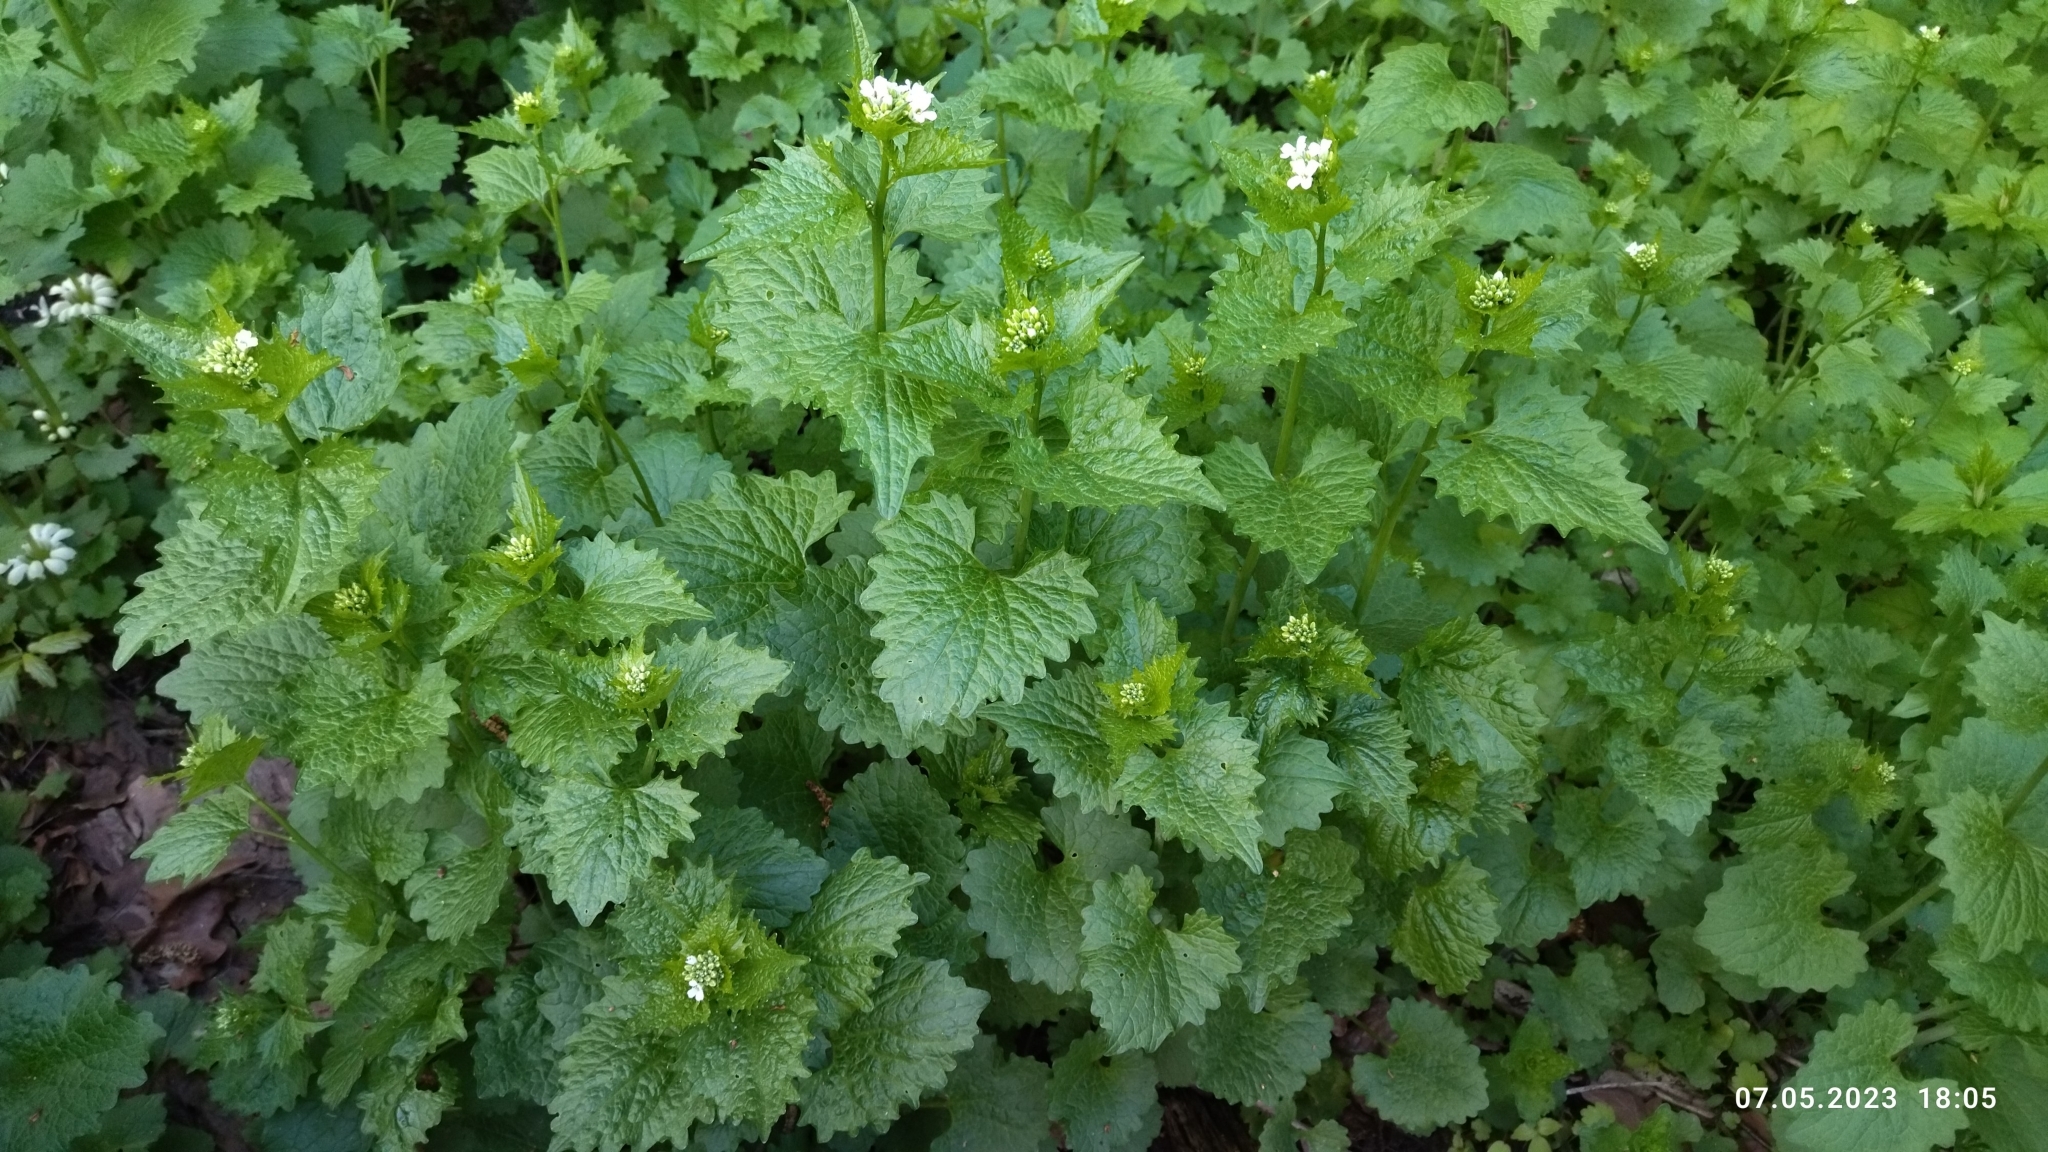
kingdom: Plantae
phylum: Tracheophyta
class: Magnoliopsida
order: Brassicales
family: Brassicaceae
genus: Alliaria
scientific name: Alliaria petiolata
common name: Garlic mustard
